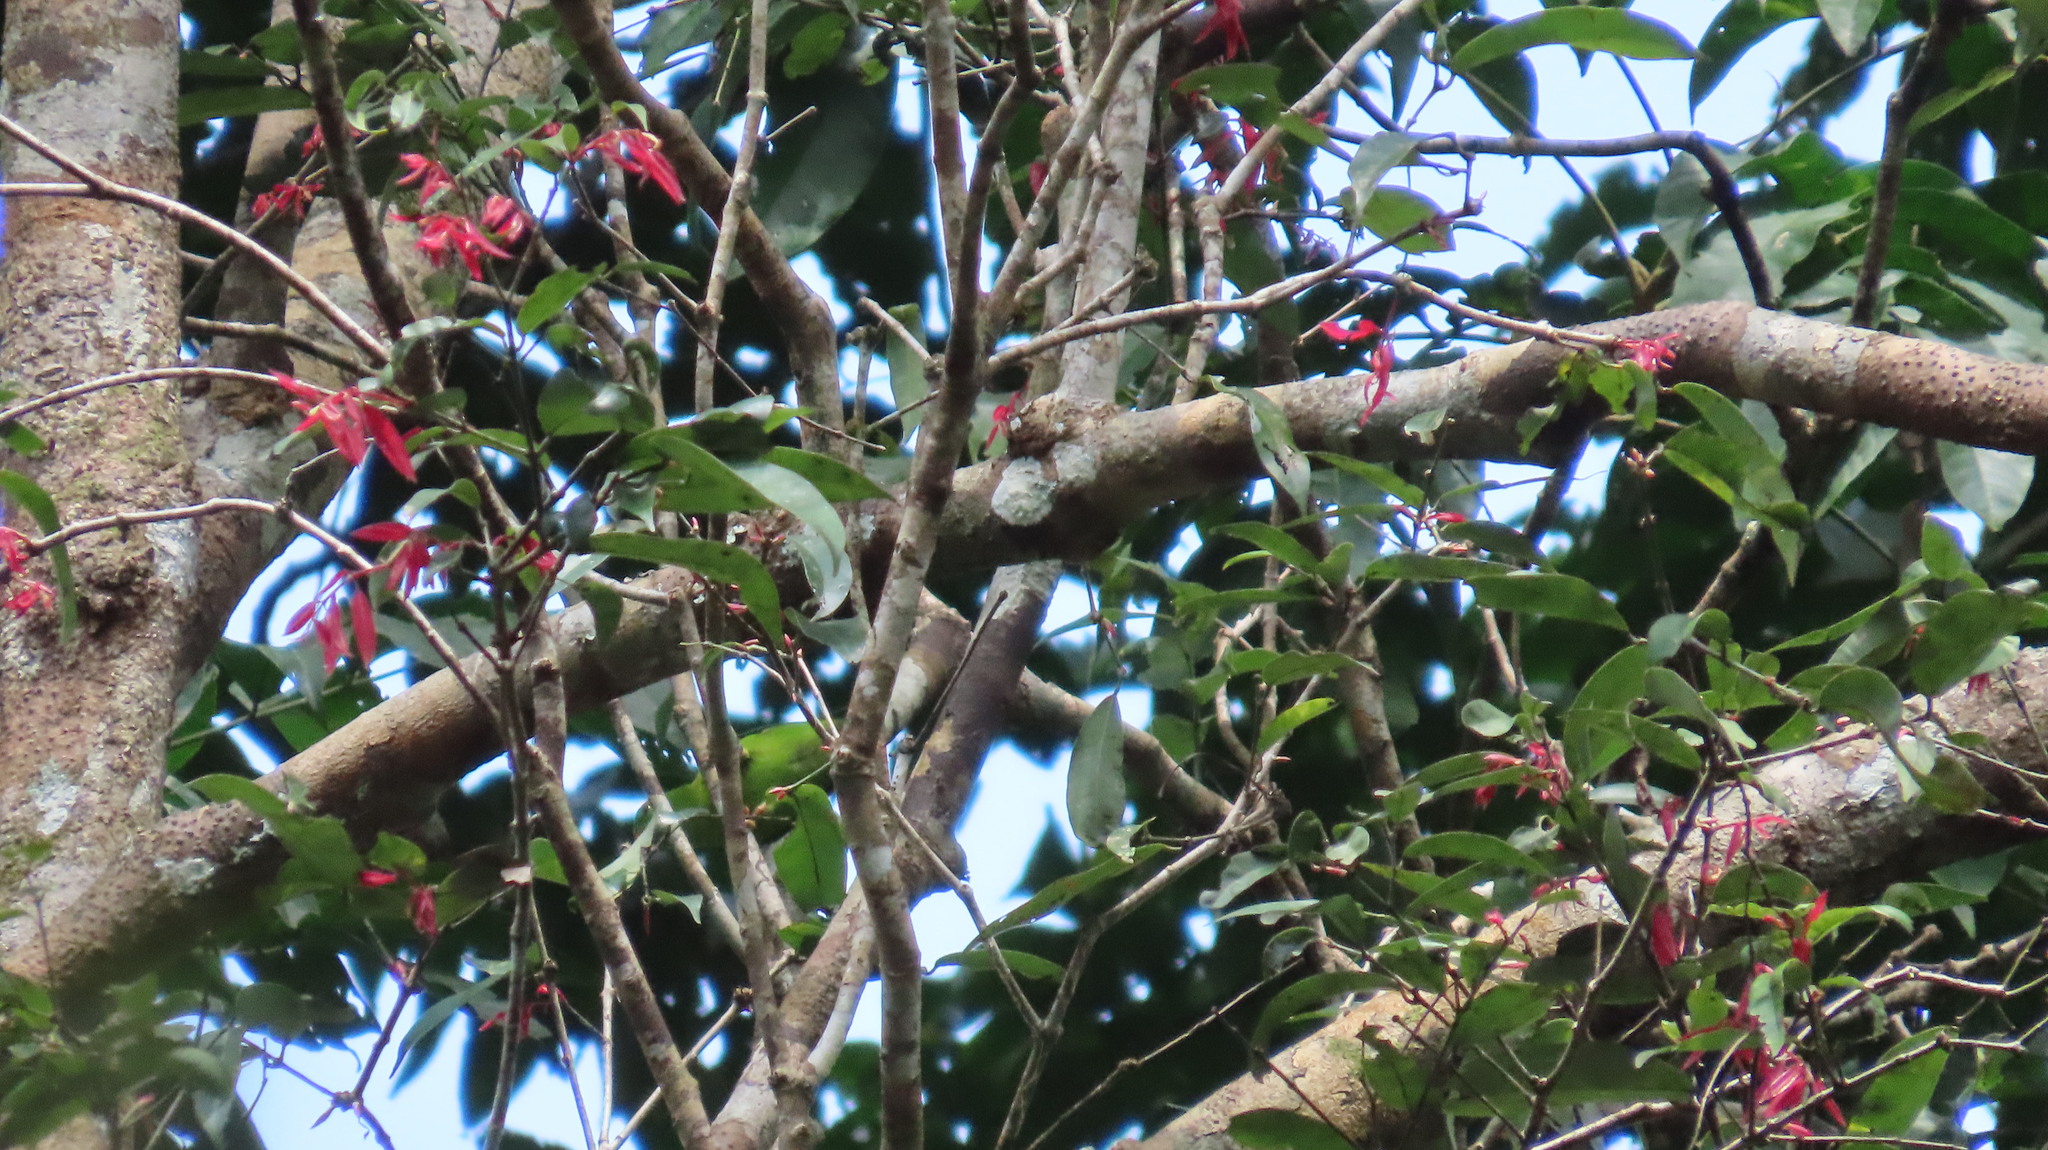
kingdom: Animalia
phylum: Chordata
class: Aves
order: Psittaciformes
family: Psittacidae
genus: Loriculus
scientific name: Loriculus vernalis
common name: Vernal hanging parrot
